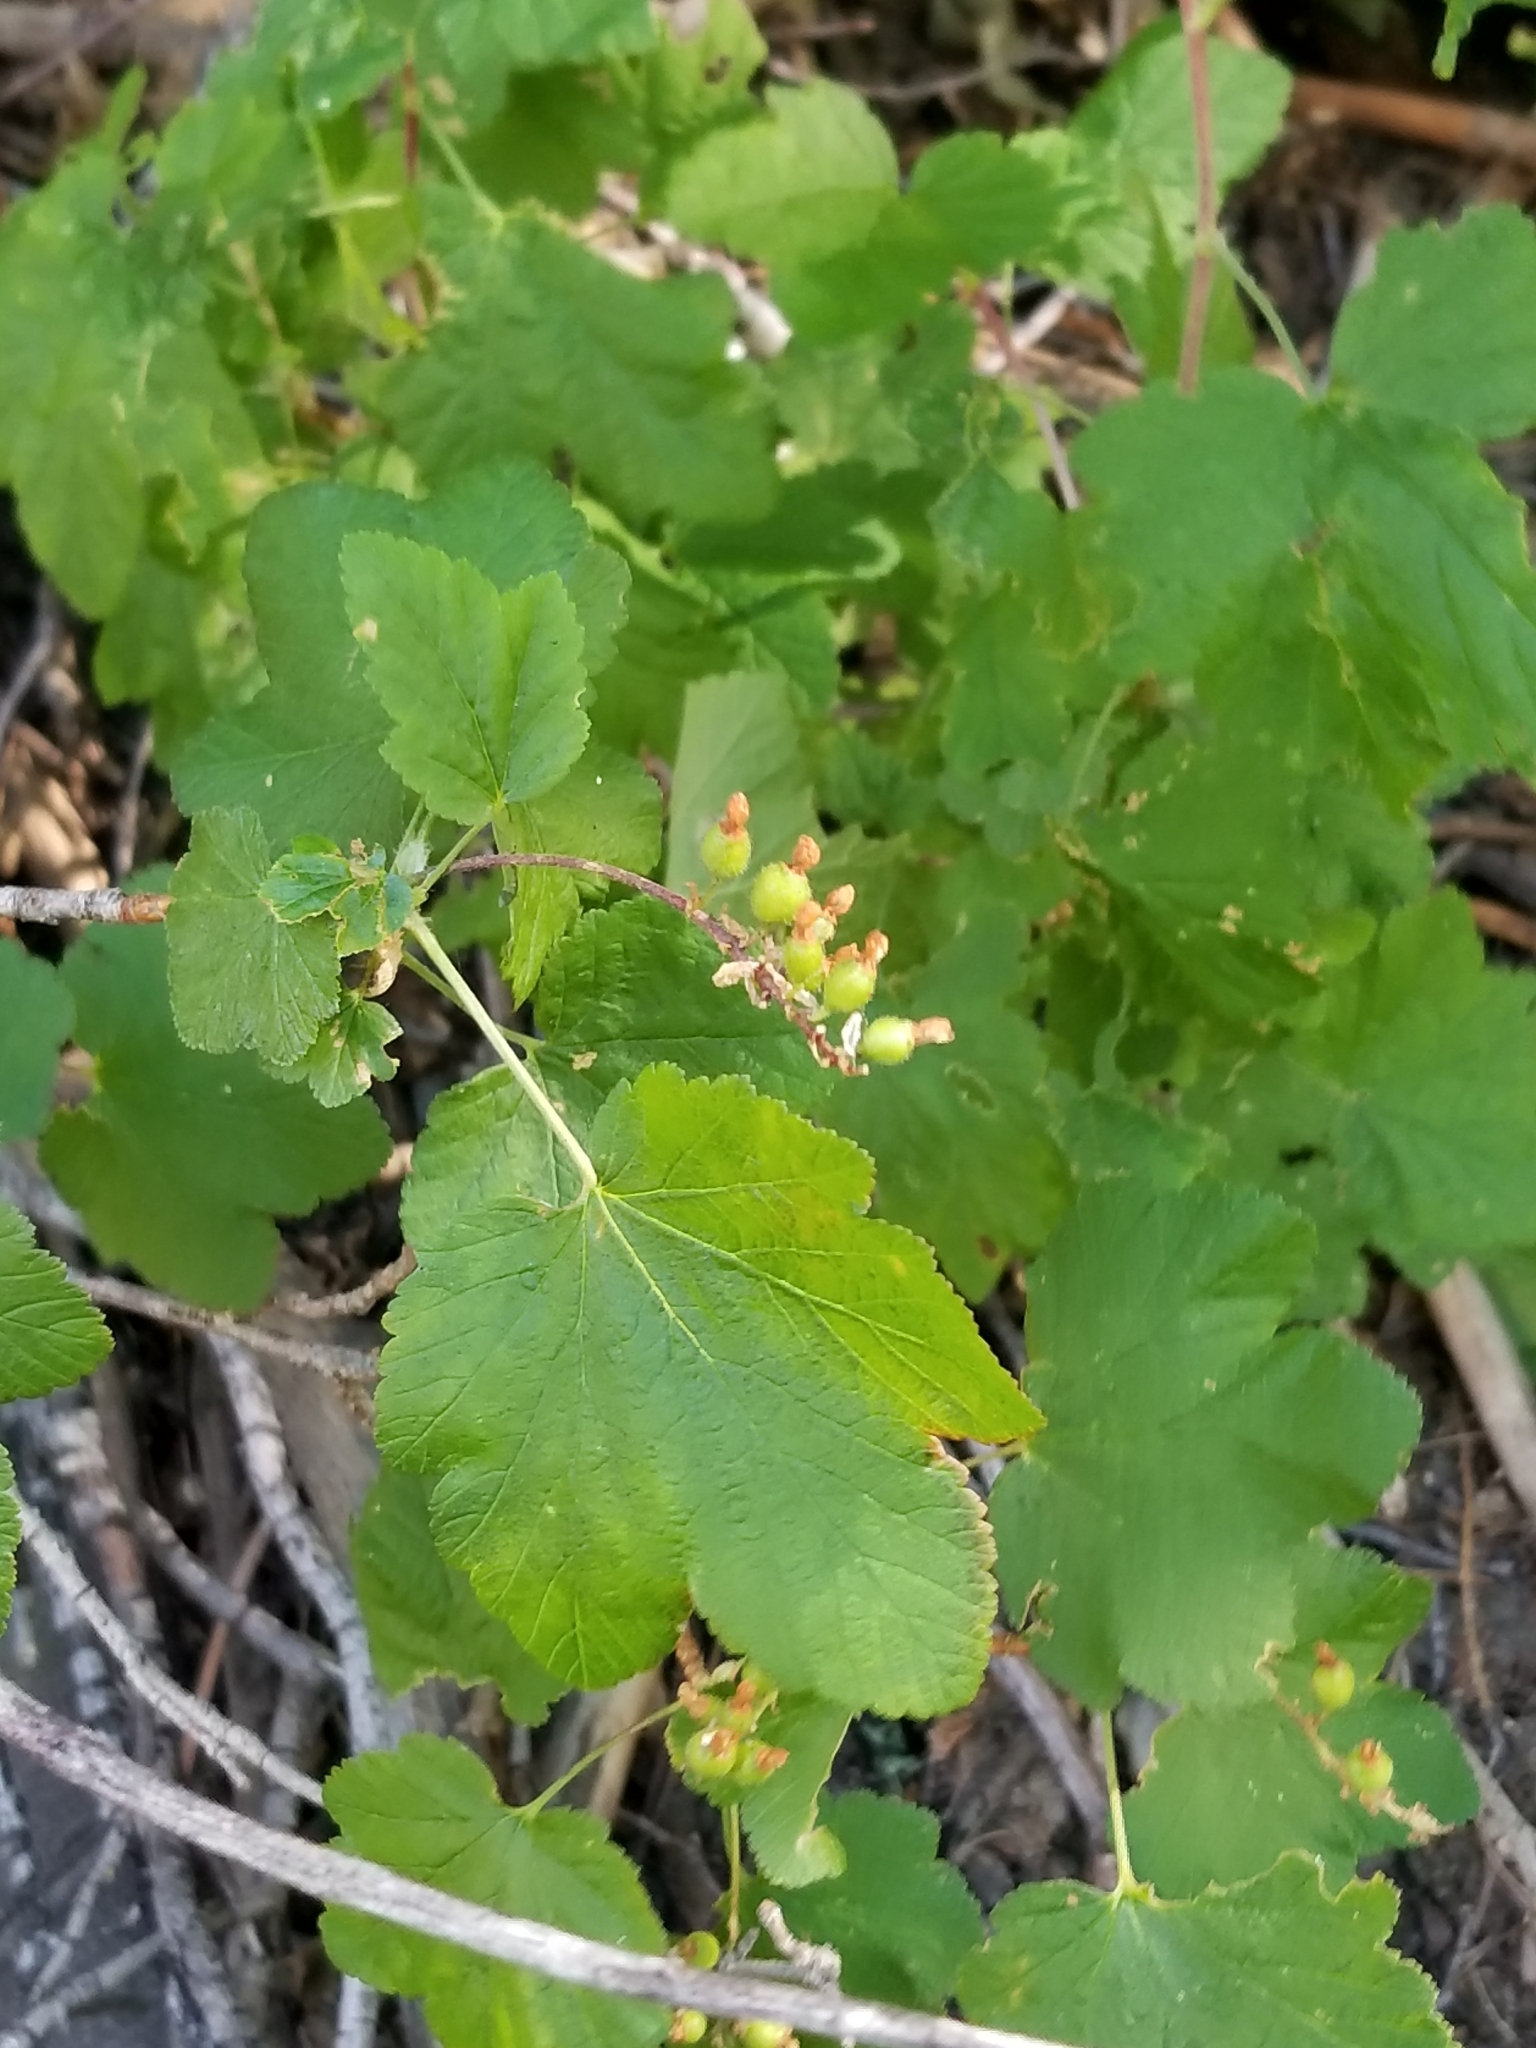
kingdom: Plantae
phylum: Tracheophyta
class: Magnoliopsida
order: Saxifragales
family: Grossulariaceae
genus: Ribes
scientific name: Ribes nevadense
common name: Mountain pink currant
